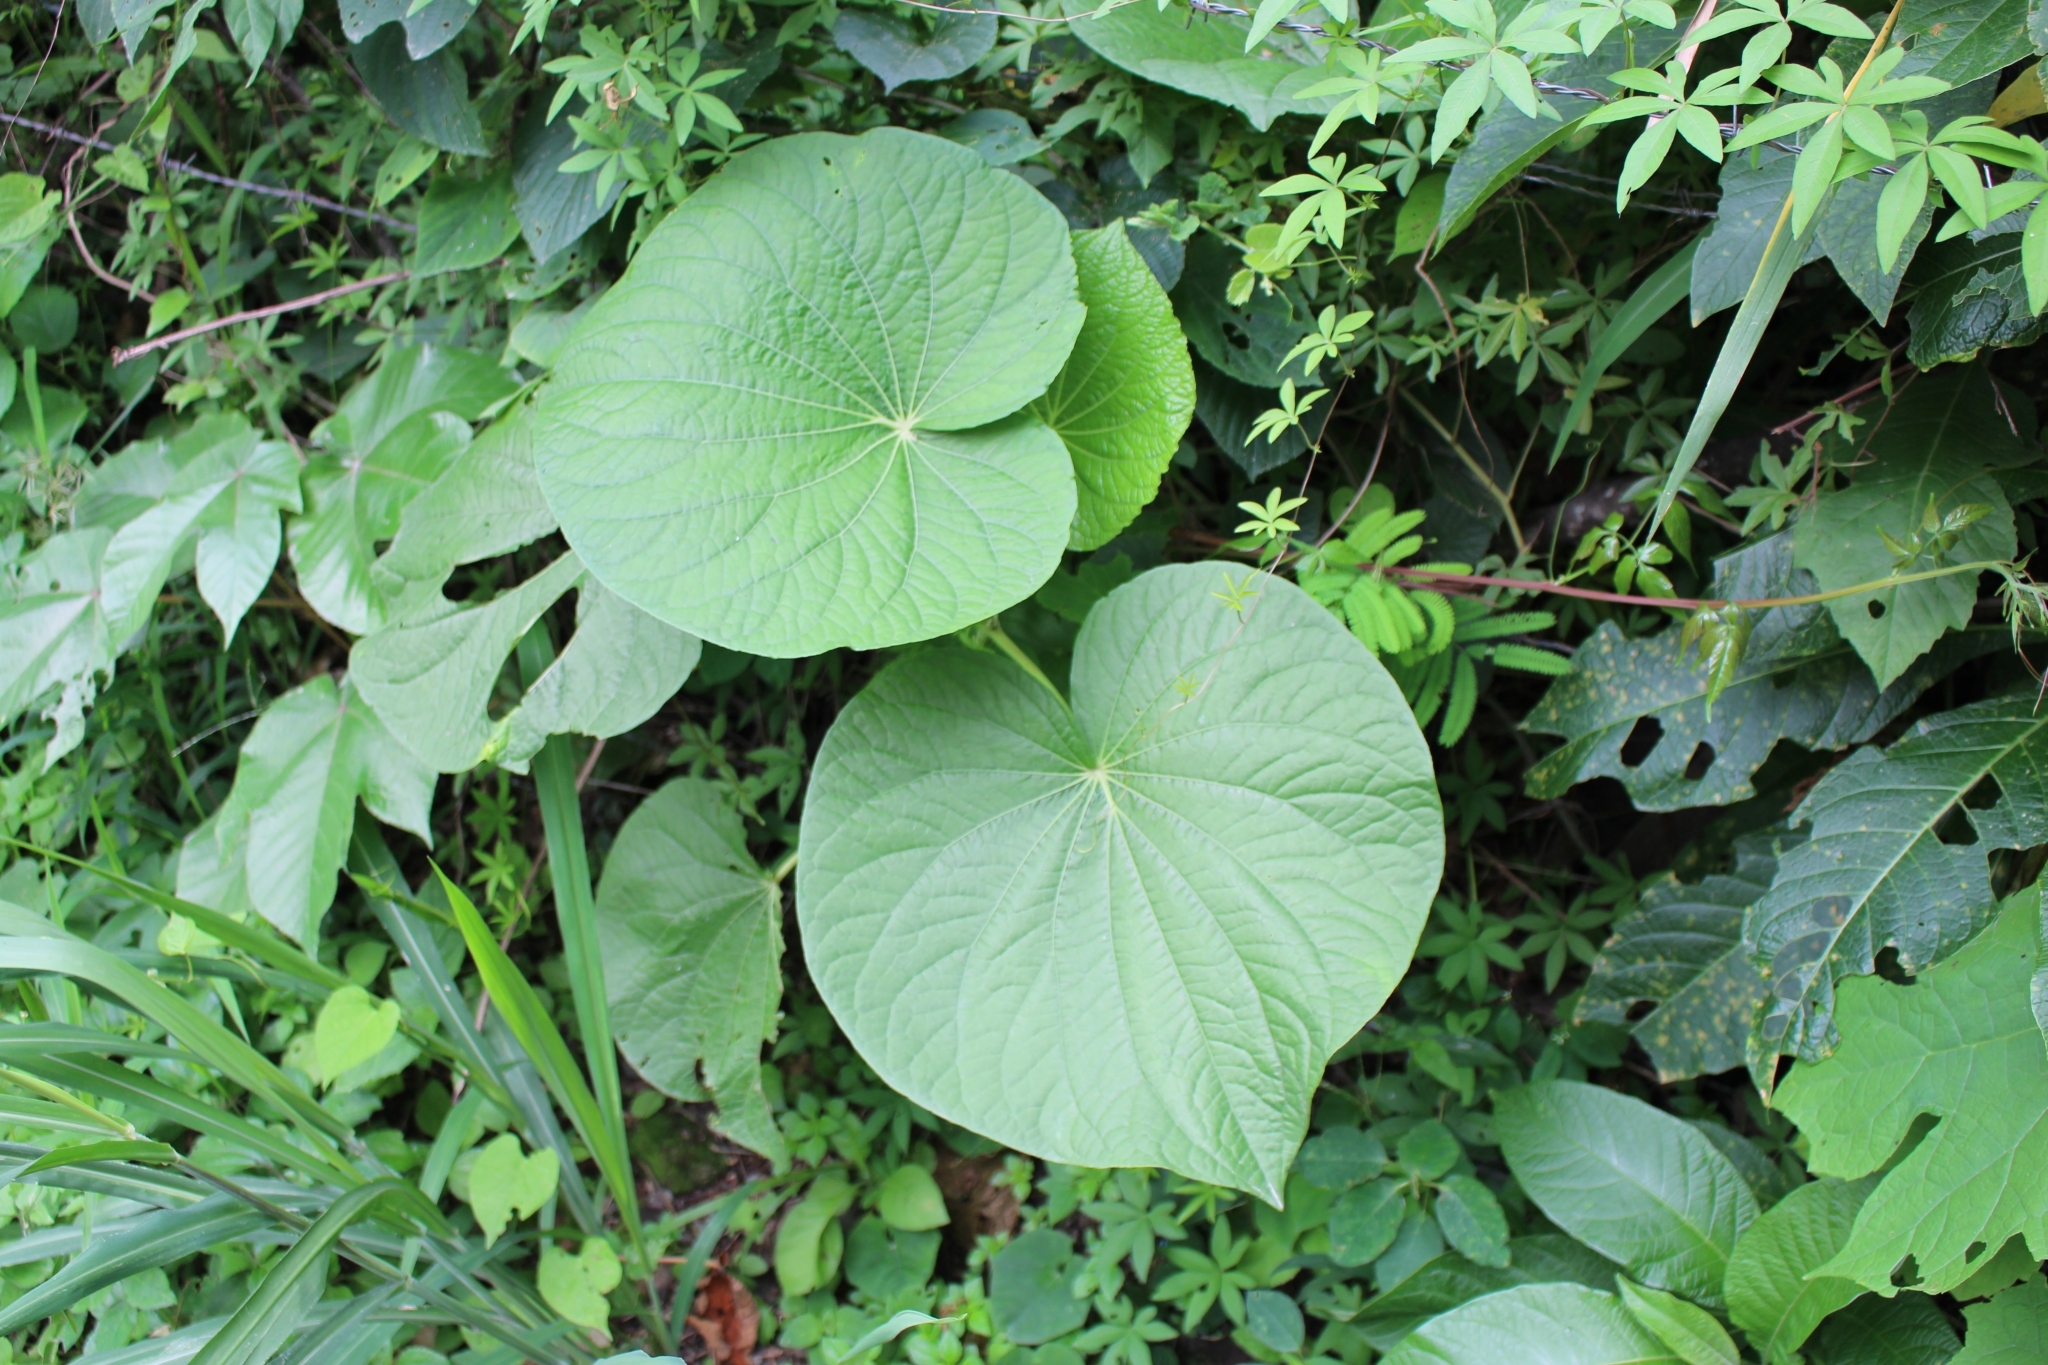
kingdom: Plantae
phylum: Tracheophyta
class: Magnoliopsida
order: Piperales
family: Piperaceae
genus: Piper
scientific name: Piper umbellatum
